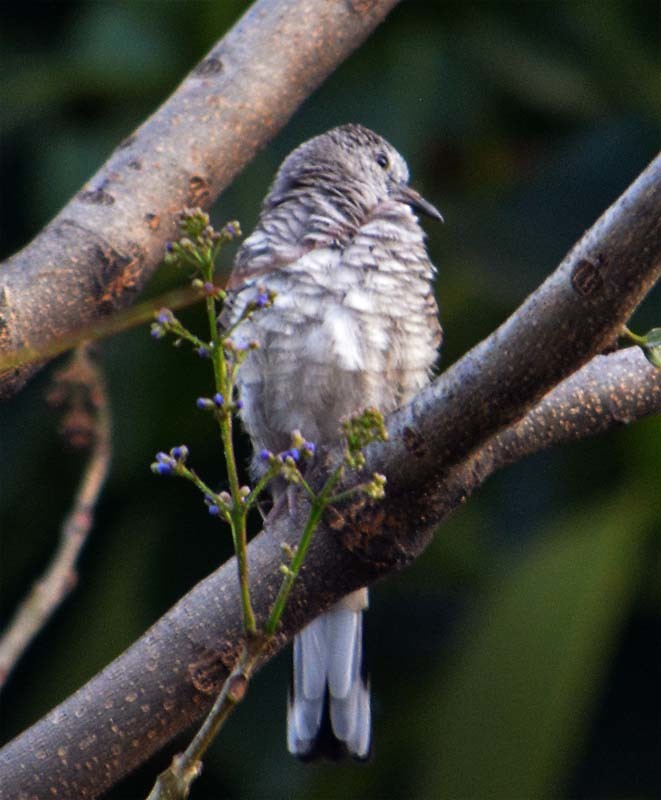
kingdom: Animalia
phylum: Chordata
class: Aves
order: Columbiformes
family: Columbidae
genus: Columbina
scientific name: Columbina inca
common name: Inca dove
